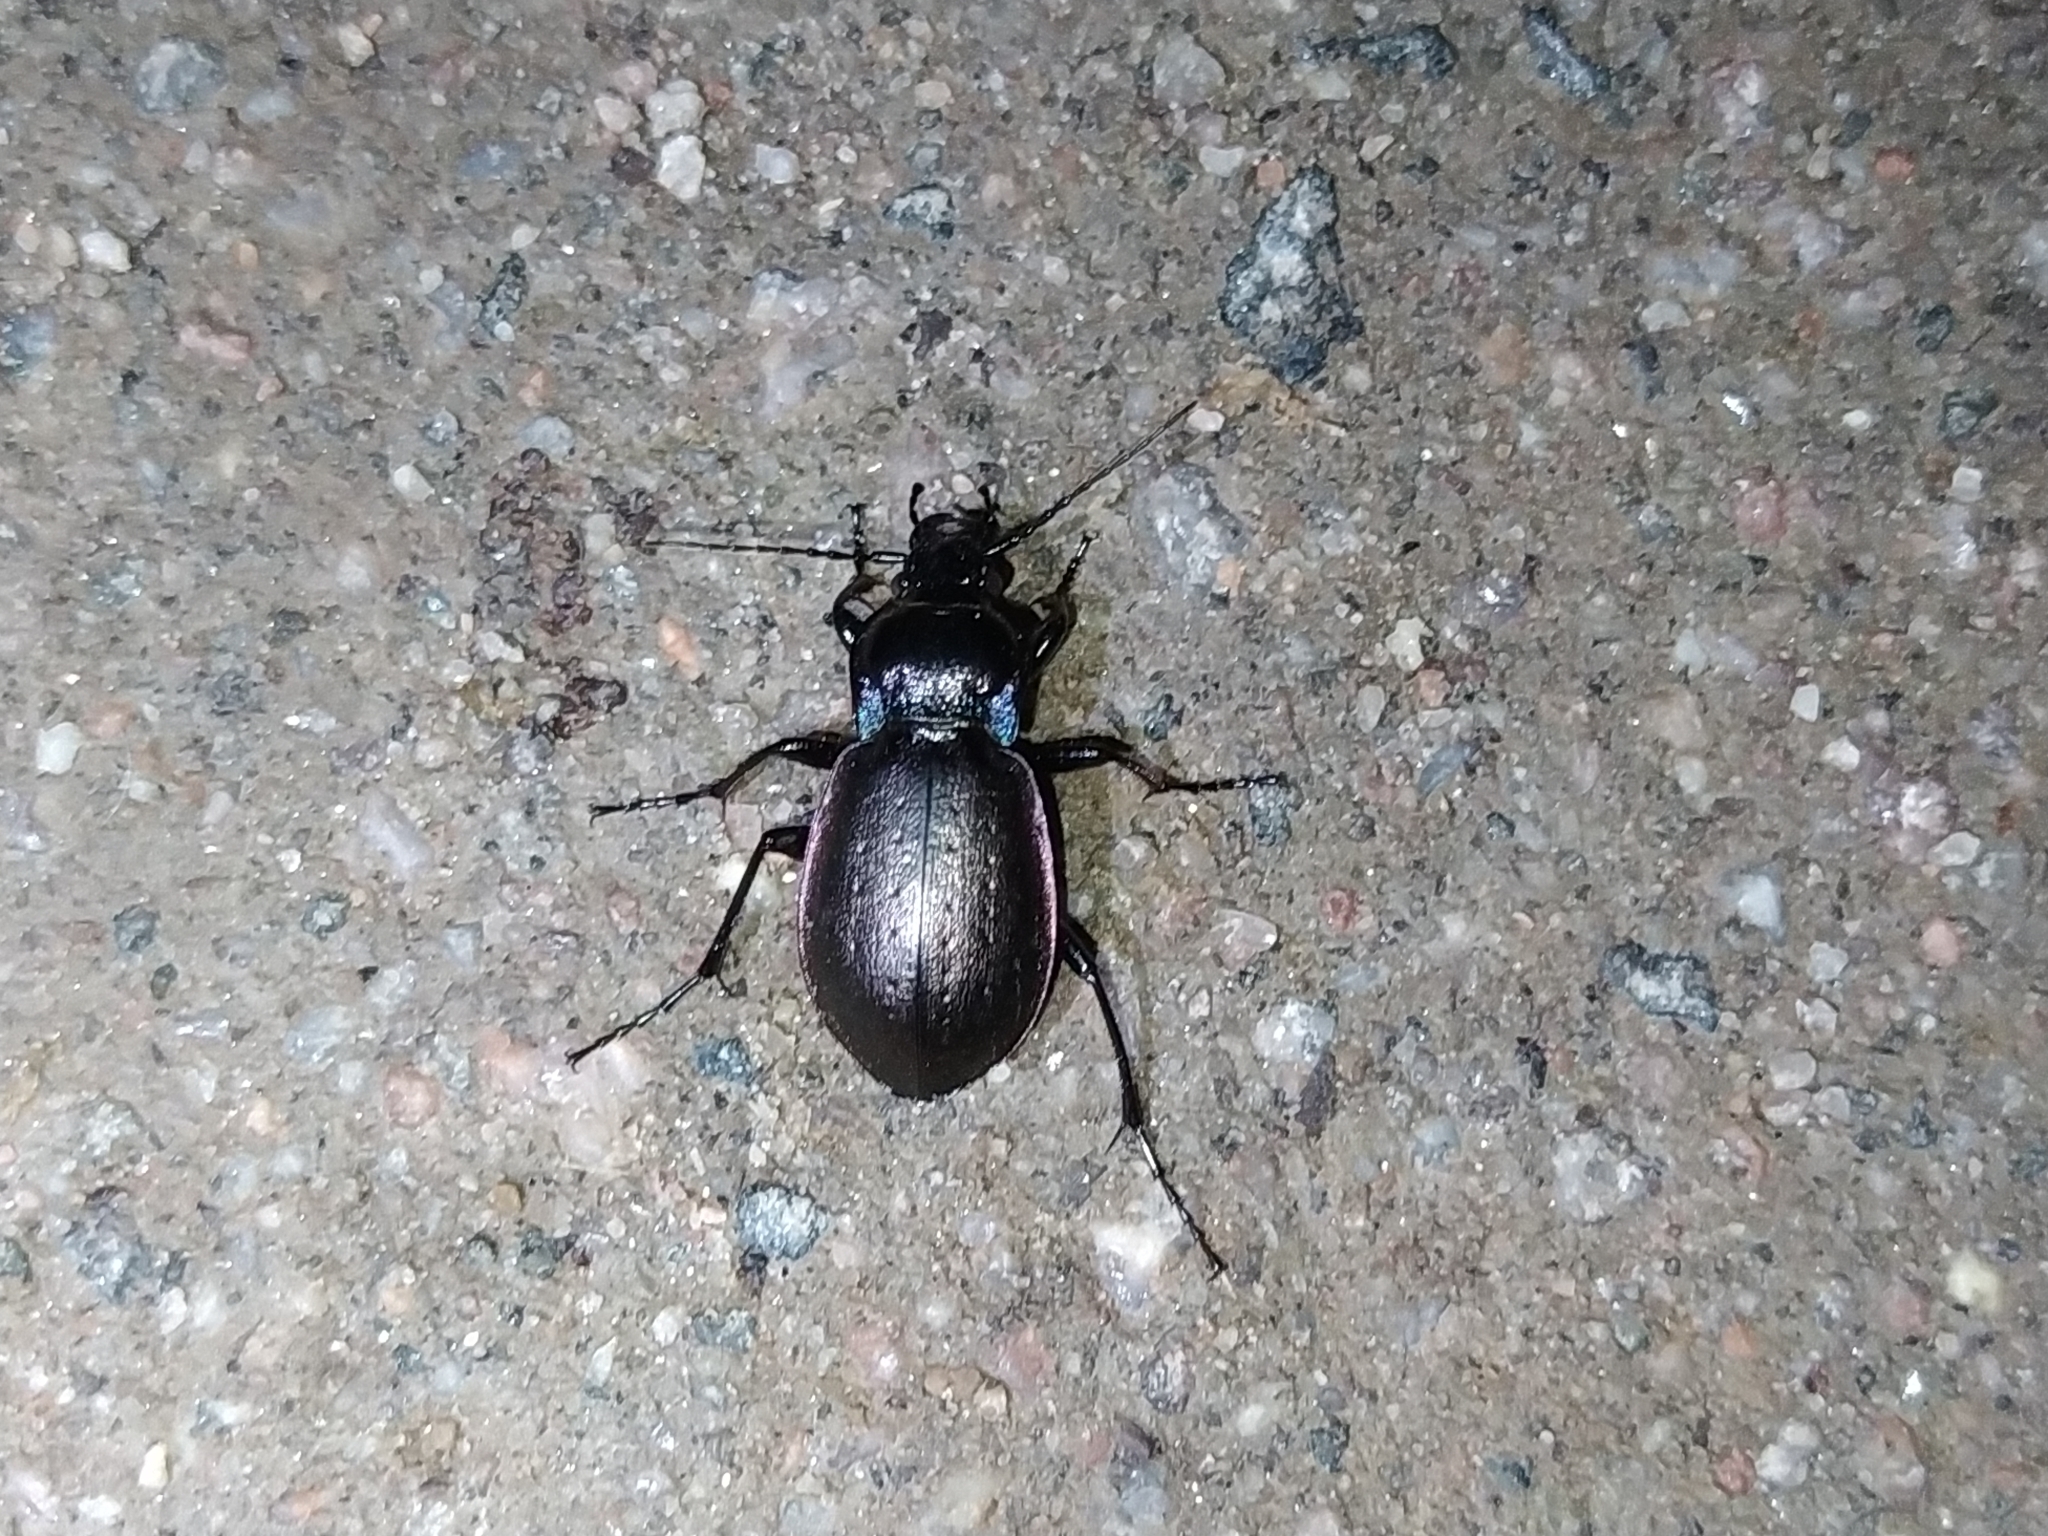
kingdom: Animalia
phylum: Arthropoda
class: Insecta
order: Coleoptera
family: Carabidae
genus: Carabus
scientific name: Carabus nemoralis
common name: European ground beetle
